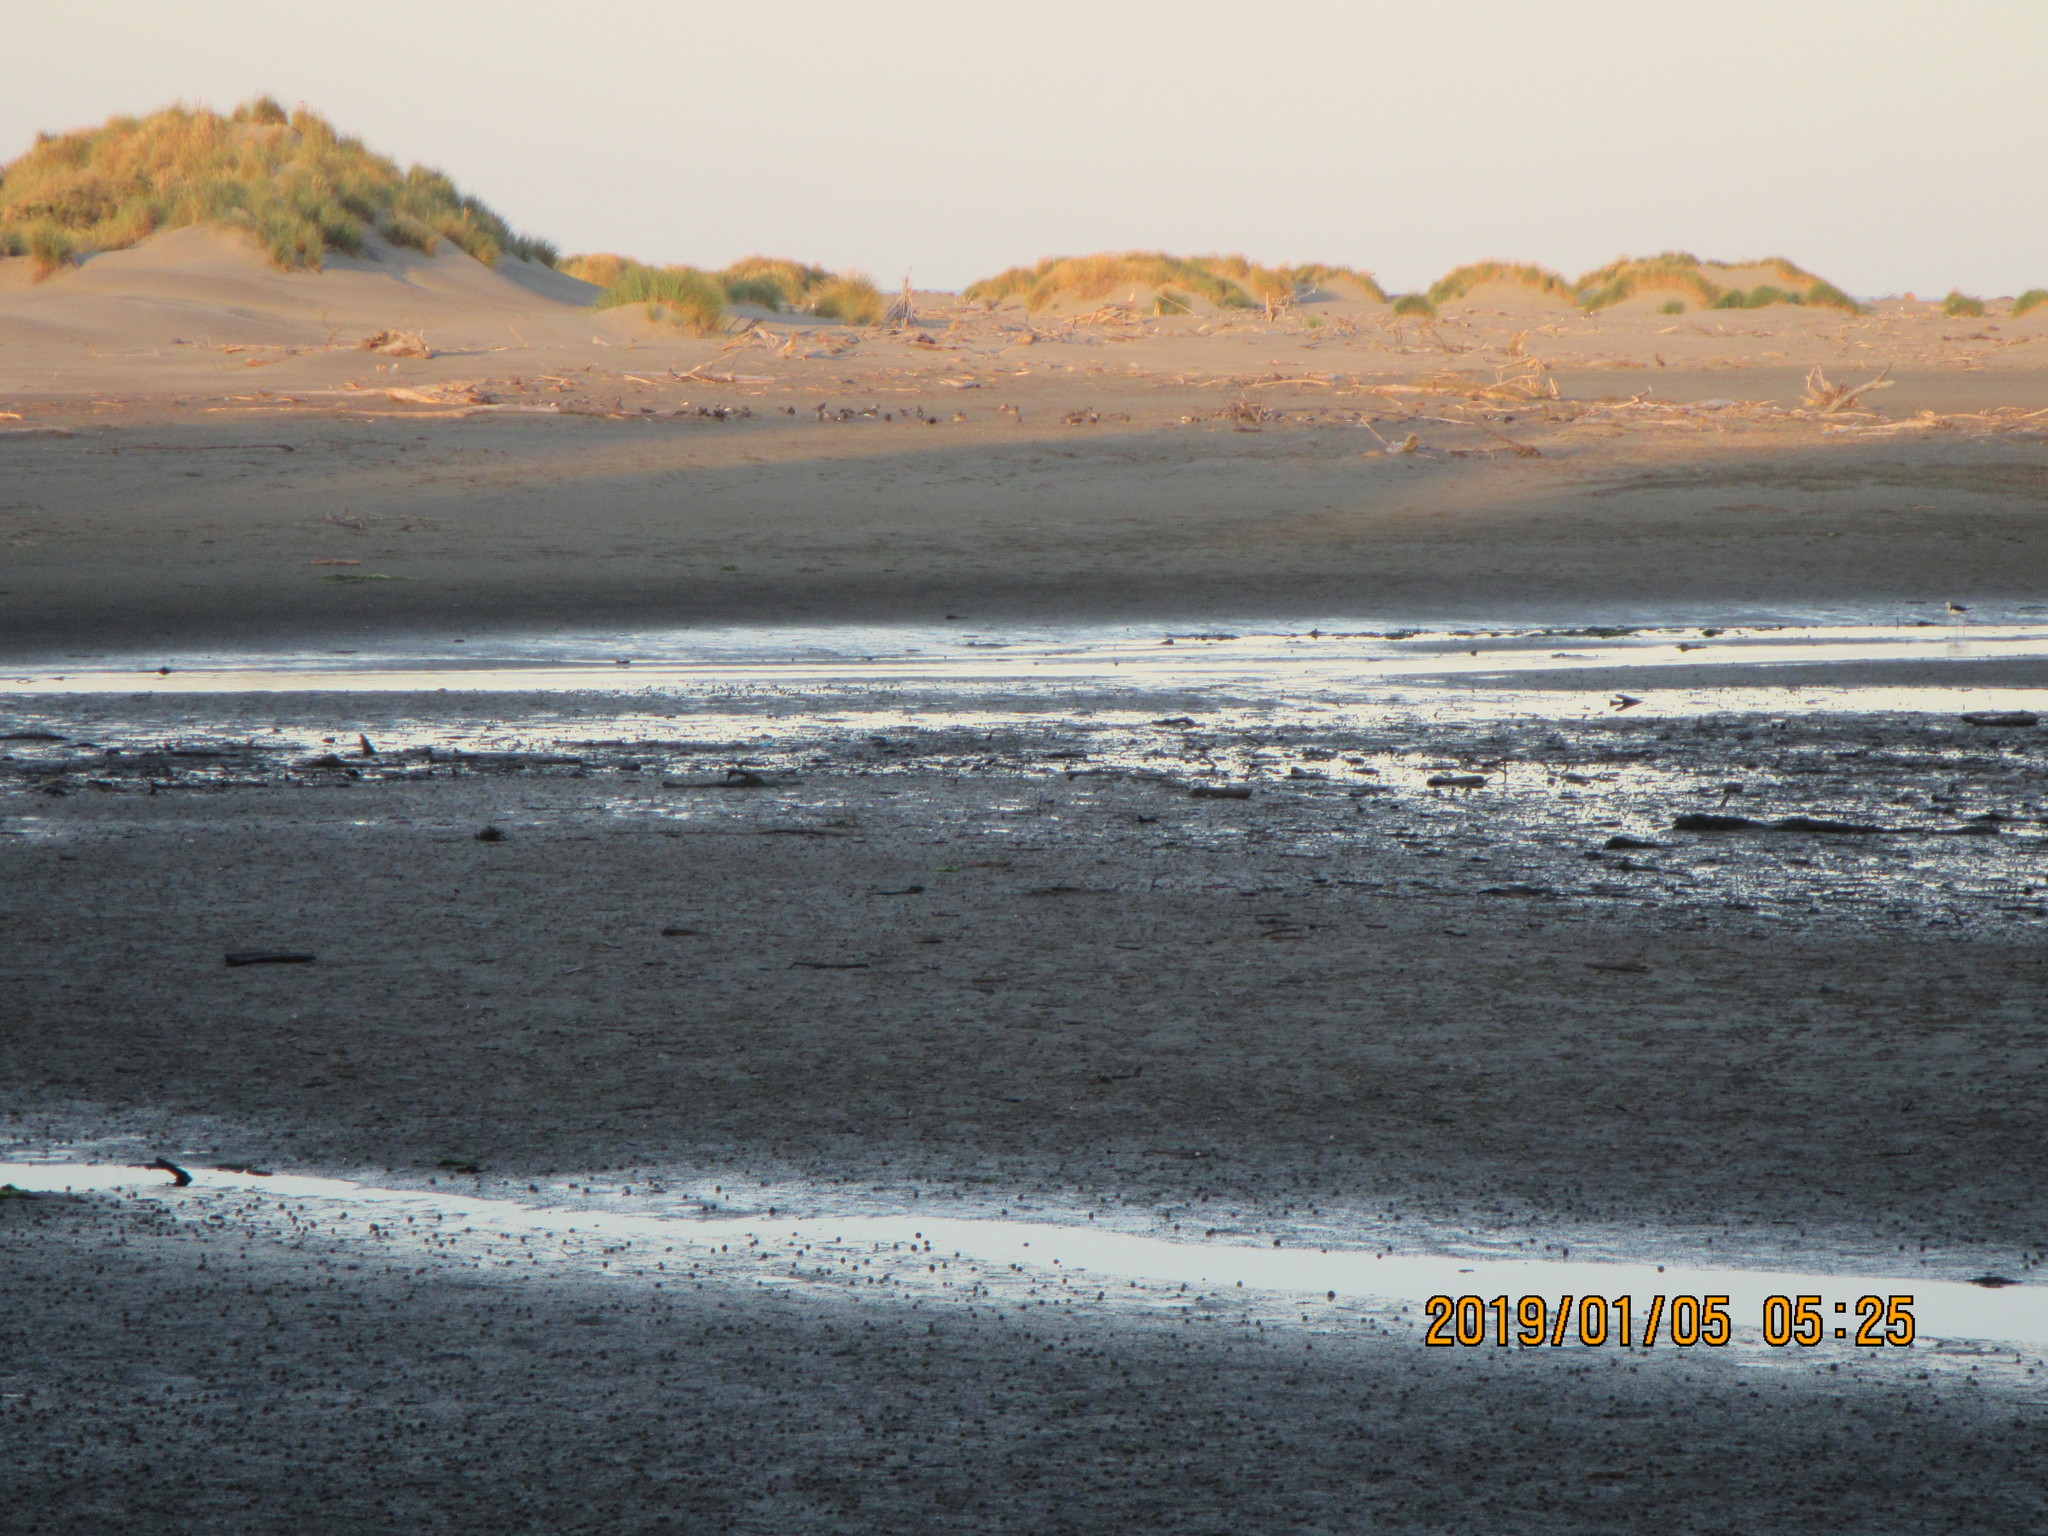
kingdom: Animalia
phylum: Chordata
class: Aves
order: Columbiformes
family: Columbidae
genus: Columba
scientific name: Columba livia
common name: Rock pigeon
